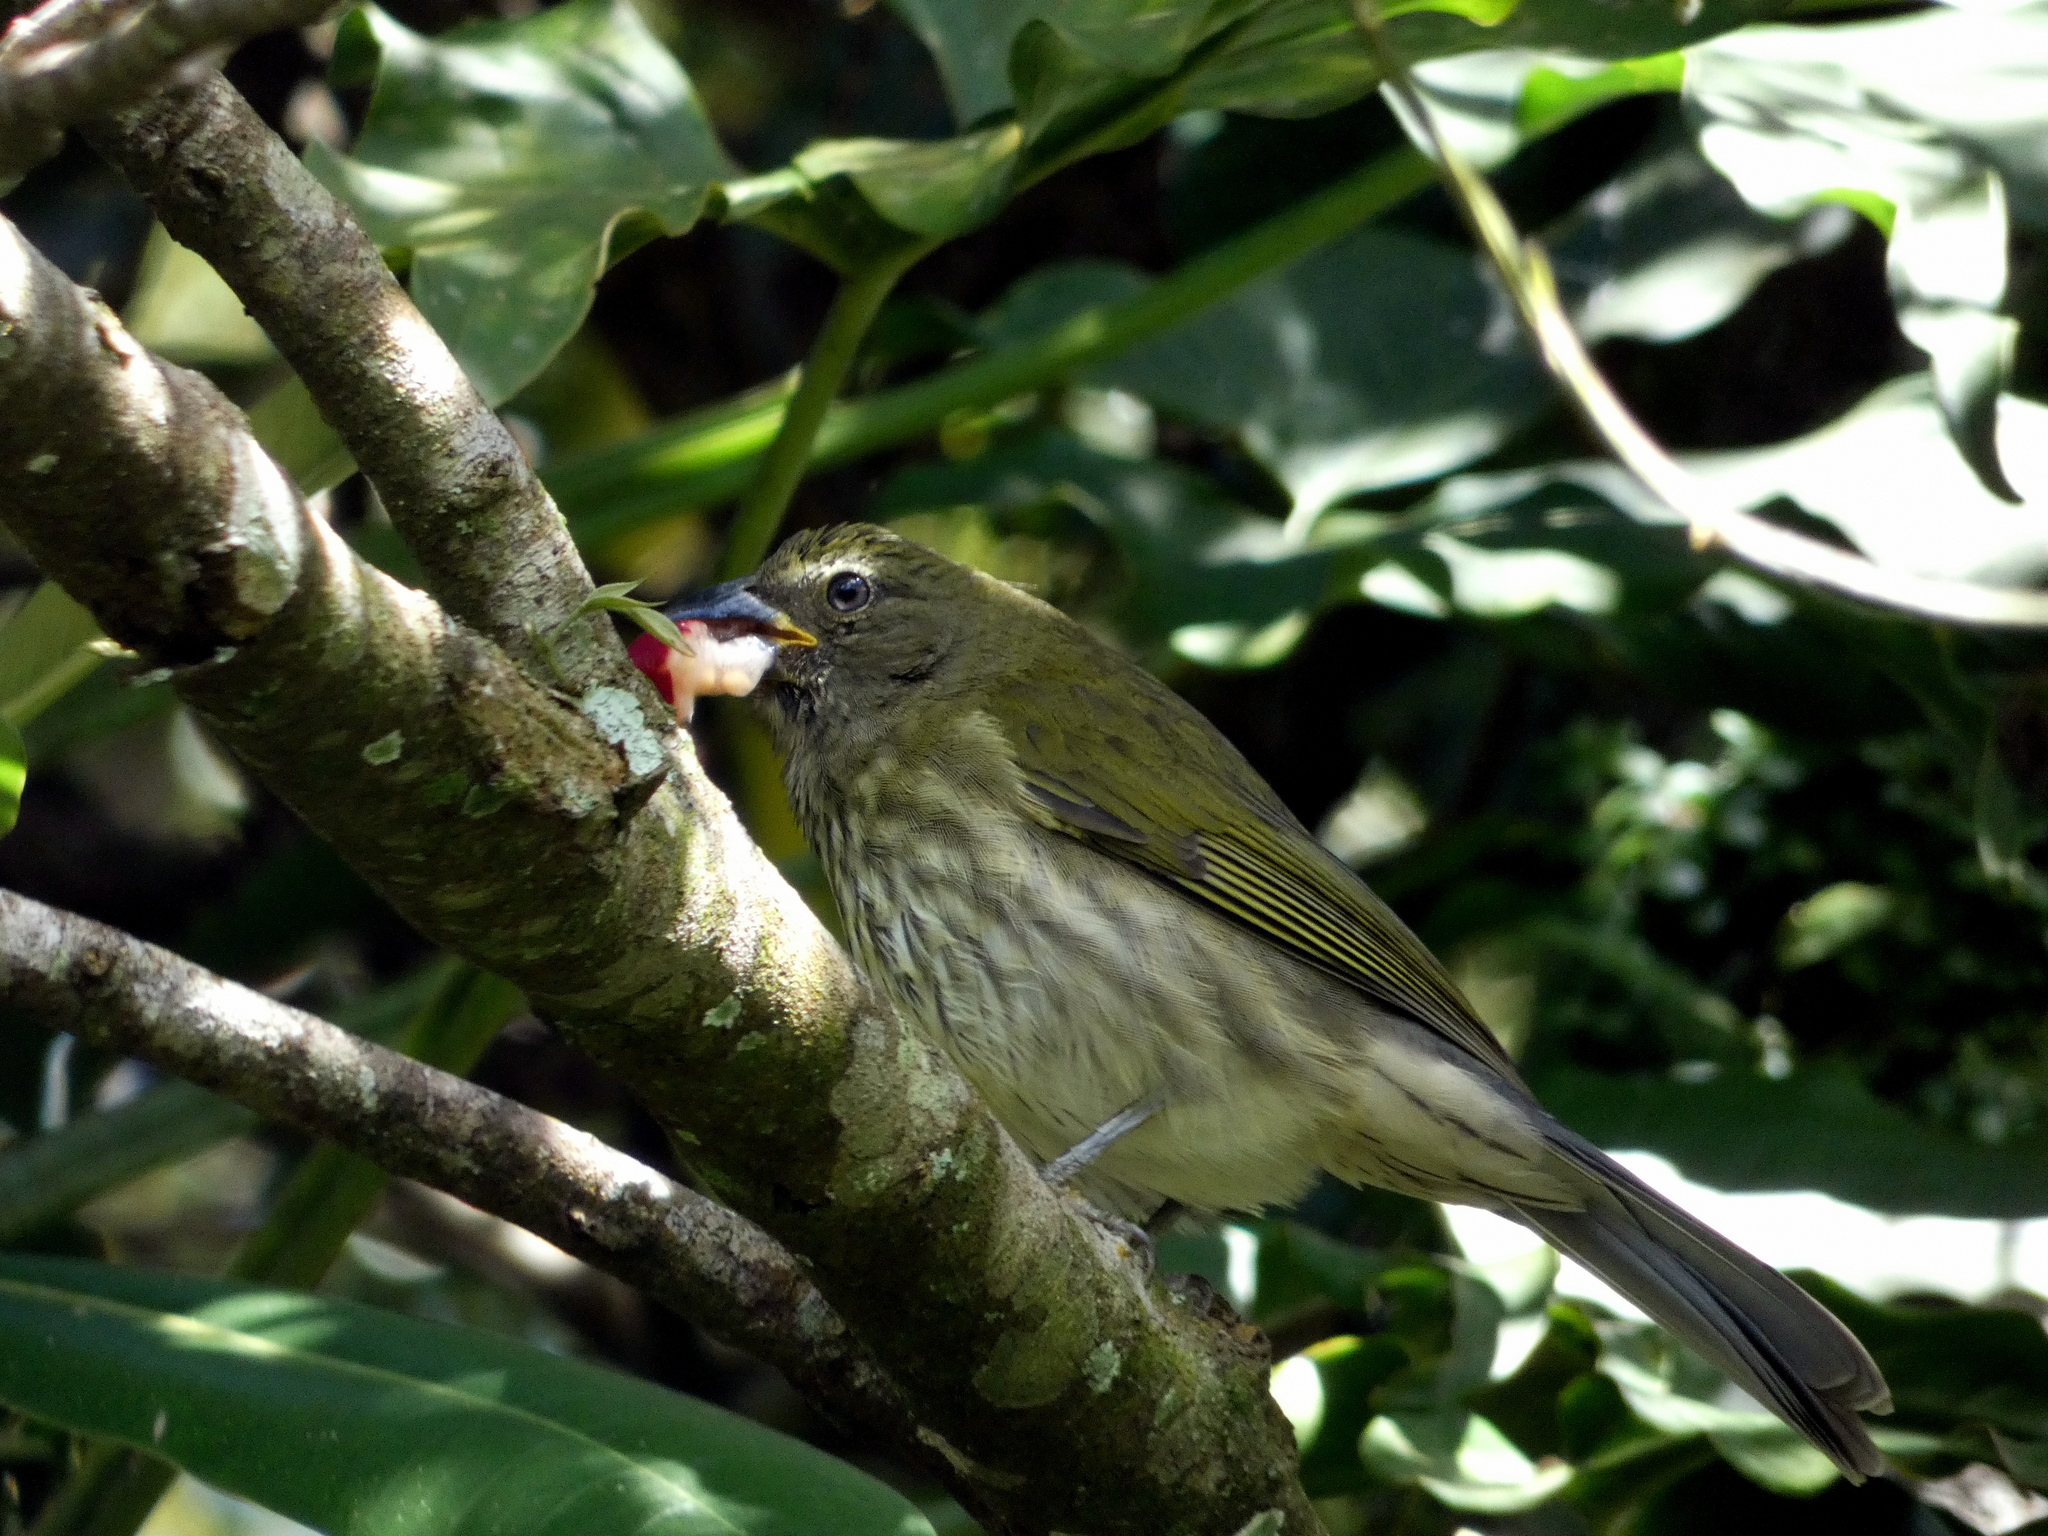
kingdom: Animalia
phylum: Chordata
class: Aves
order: Passeriformes
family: Thraupidae
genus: Saltator
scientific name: Saltator striatipectus
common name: Streaked saltator
